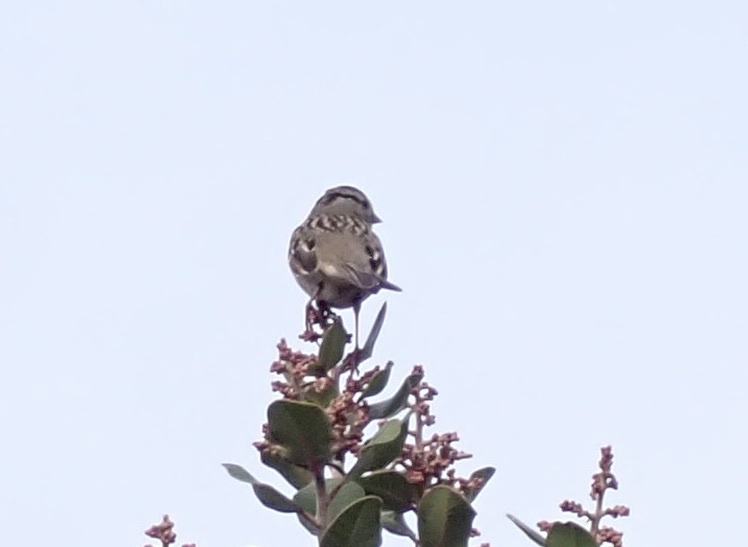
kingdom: Animalia
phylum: Chordata
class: Aves
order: Passeriformes
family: Passerellidae
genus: Zonotrichia
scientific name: Zonotrichia leucophrys
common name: White-crowned sparrow
